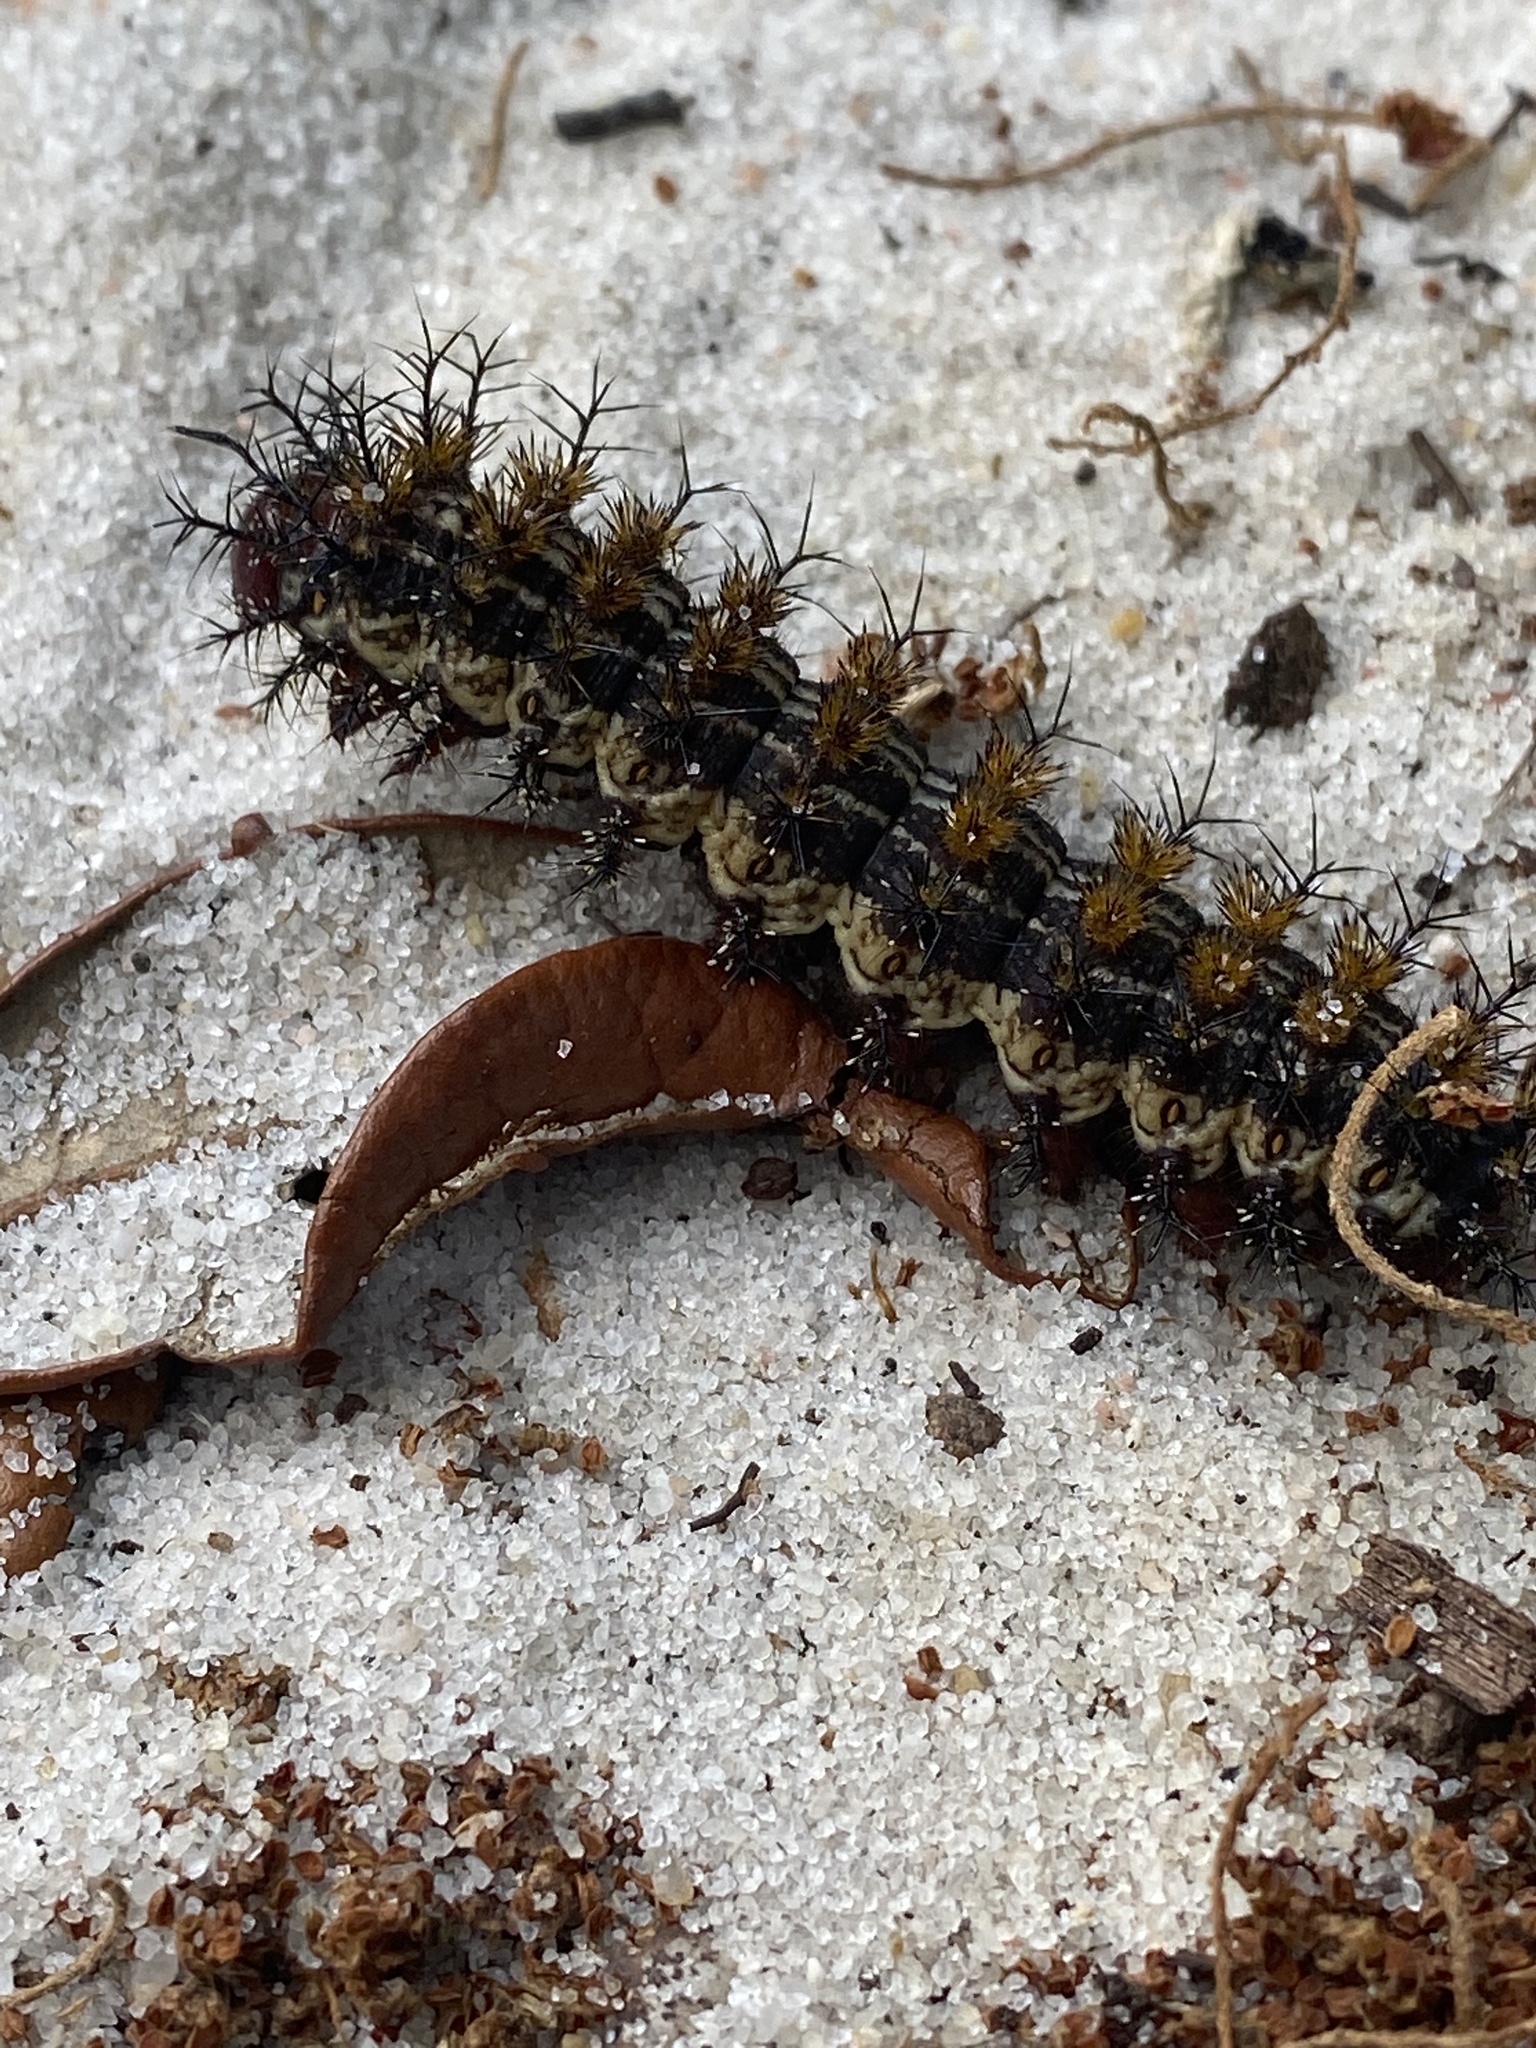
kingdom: Animalia
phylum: Arthropoda
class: Insecta
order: Lepidoptera
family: Saturniidae
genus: Hemileuca
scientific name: Hemileuca maia
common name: Eastern buckmoth
